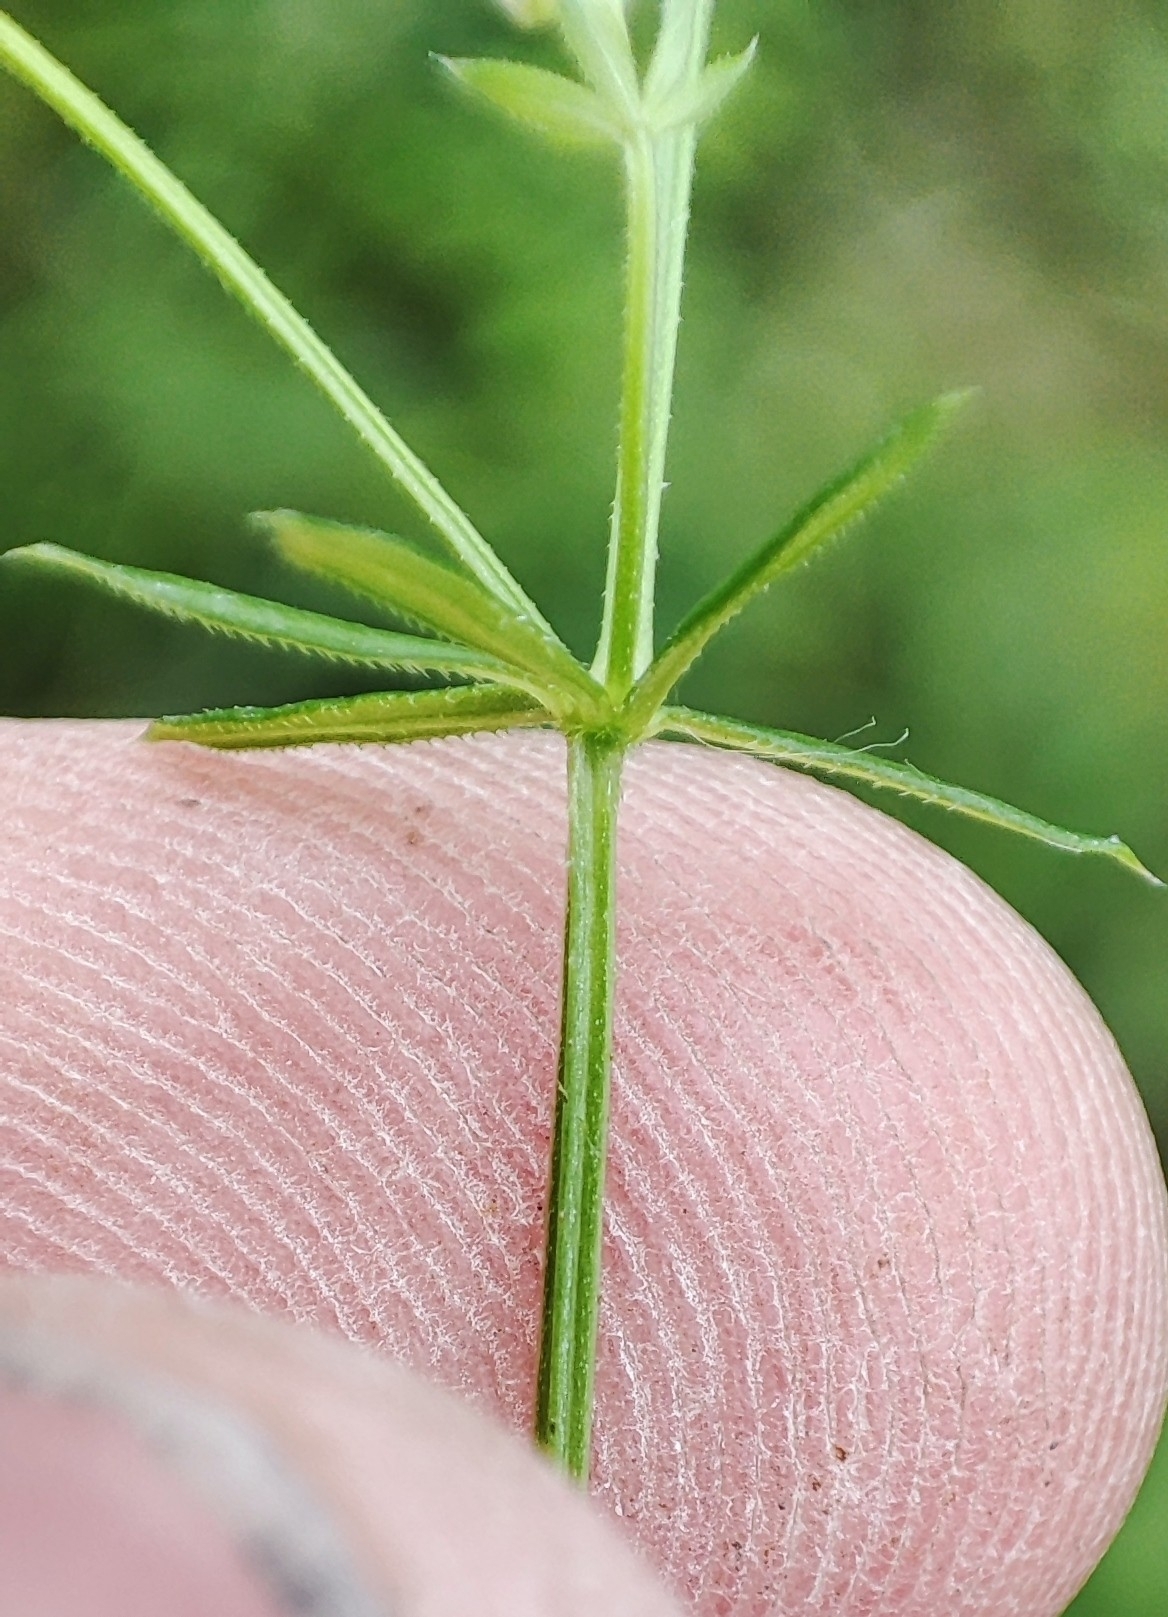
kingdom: Plantae
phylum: Tracheophyta
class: Magnoliopsida
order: Gentianales
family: Rubiaceae
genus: Galium
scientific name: Galium uliginosum
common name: Fen bedstraw
